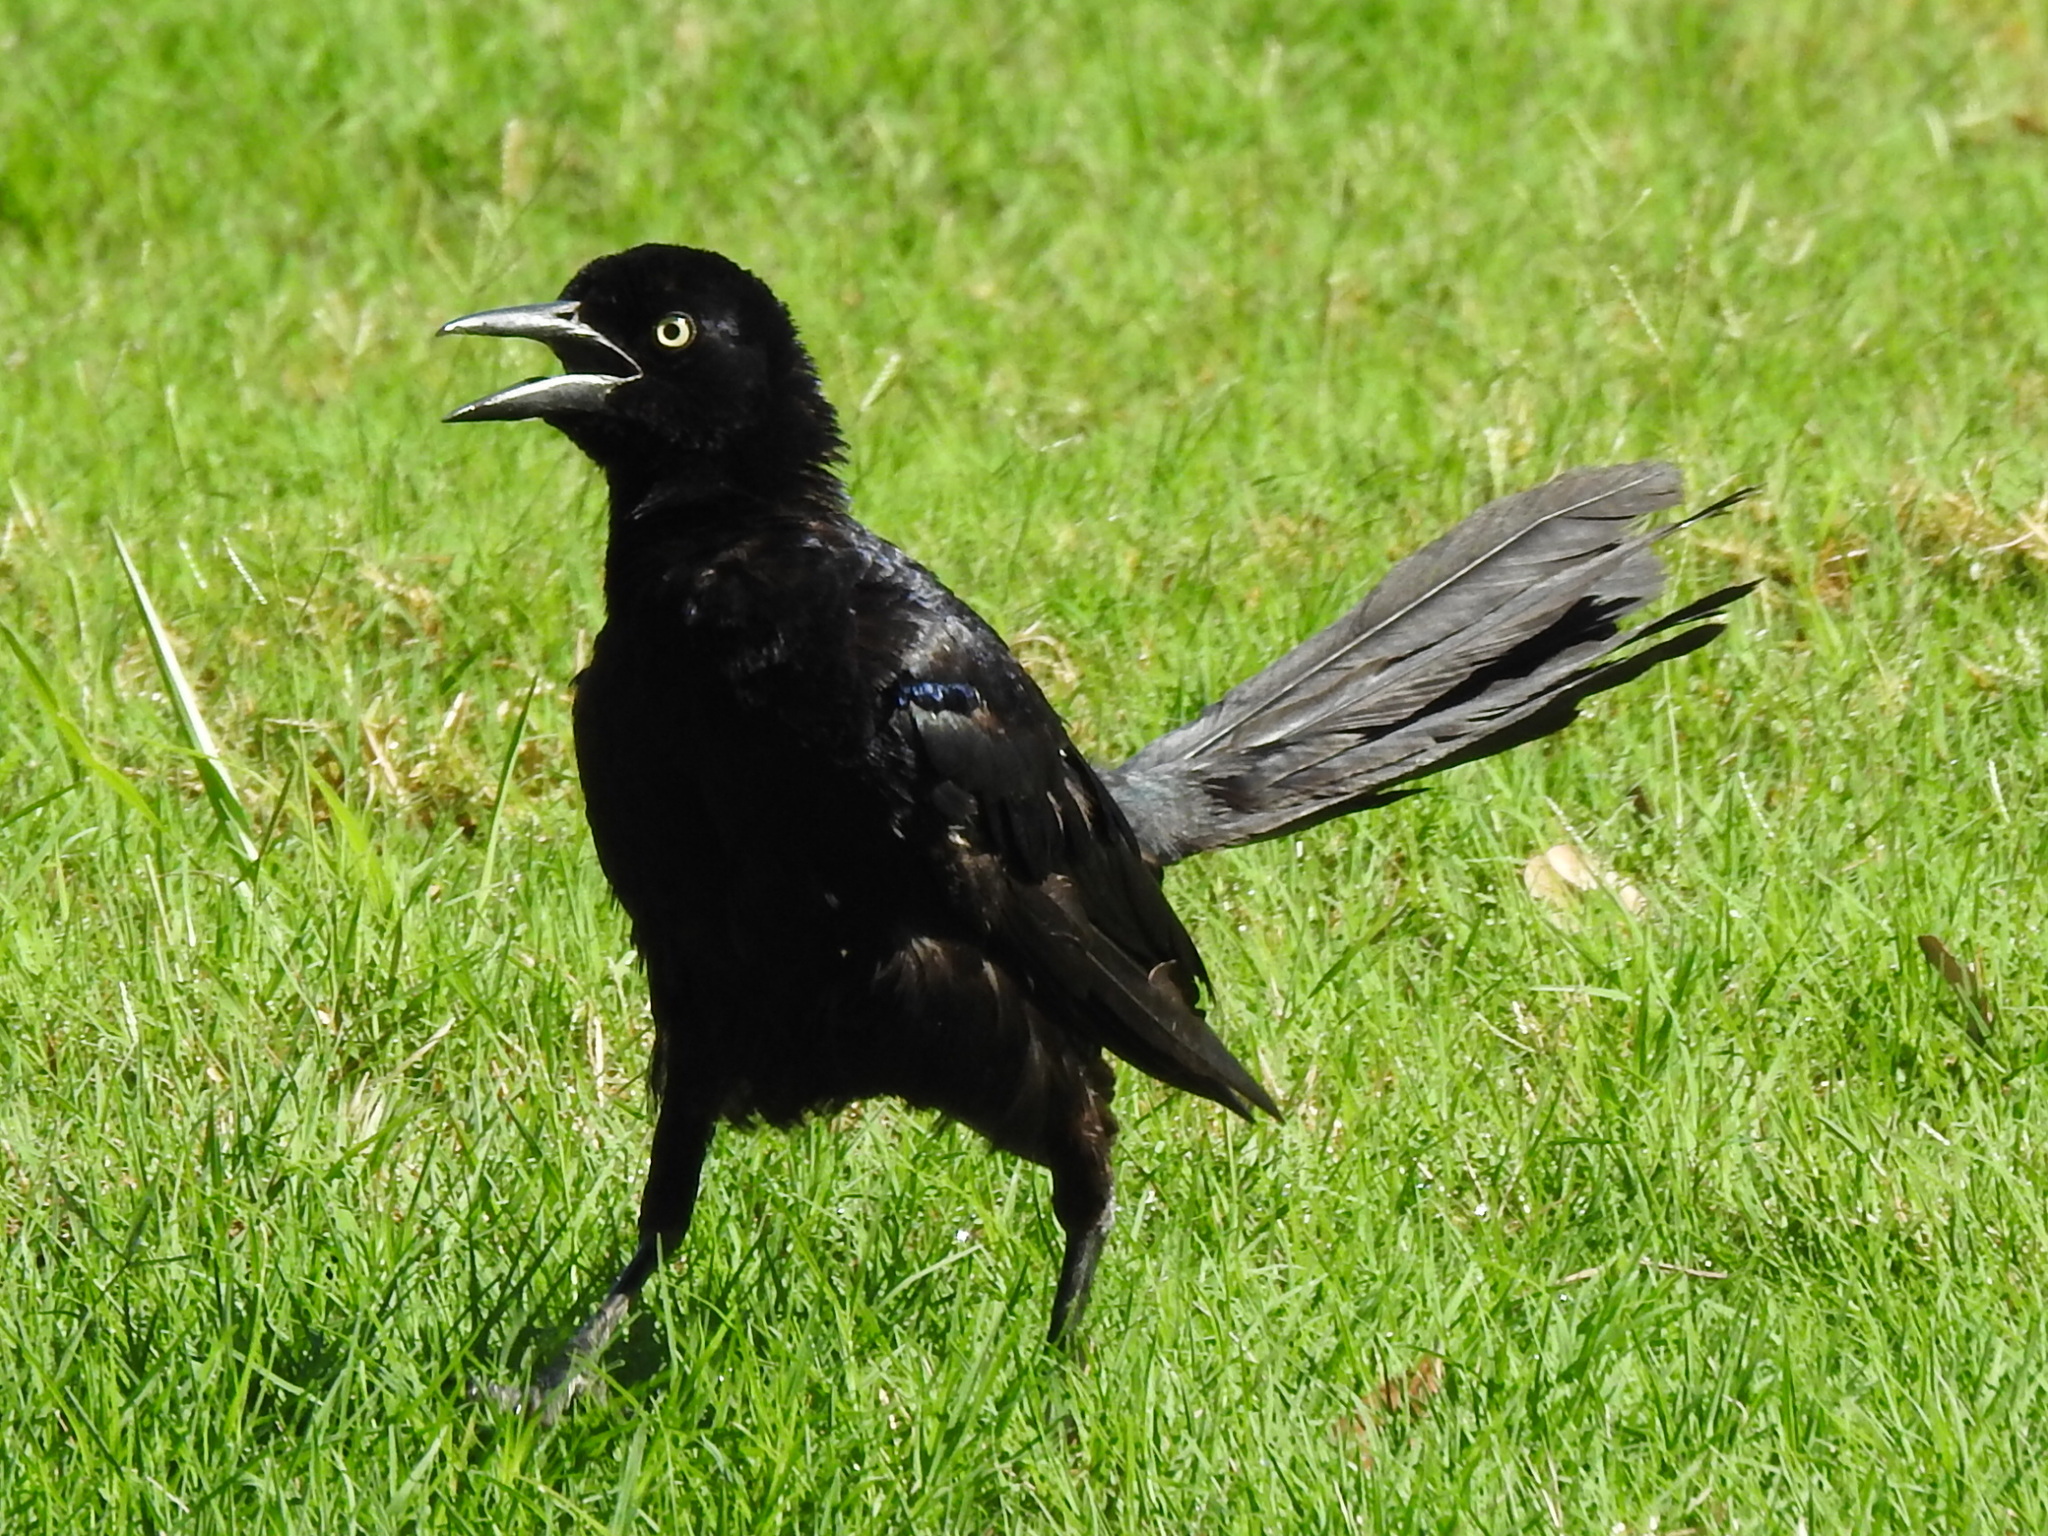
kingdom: Animalia
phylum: Chordata
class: Aves
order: Passeriformes
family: Icteridae
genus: Quiscalus
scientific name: Quiscalus mexicanus
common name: Great-tailed grackle
